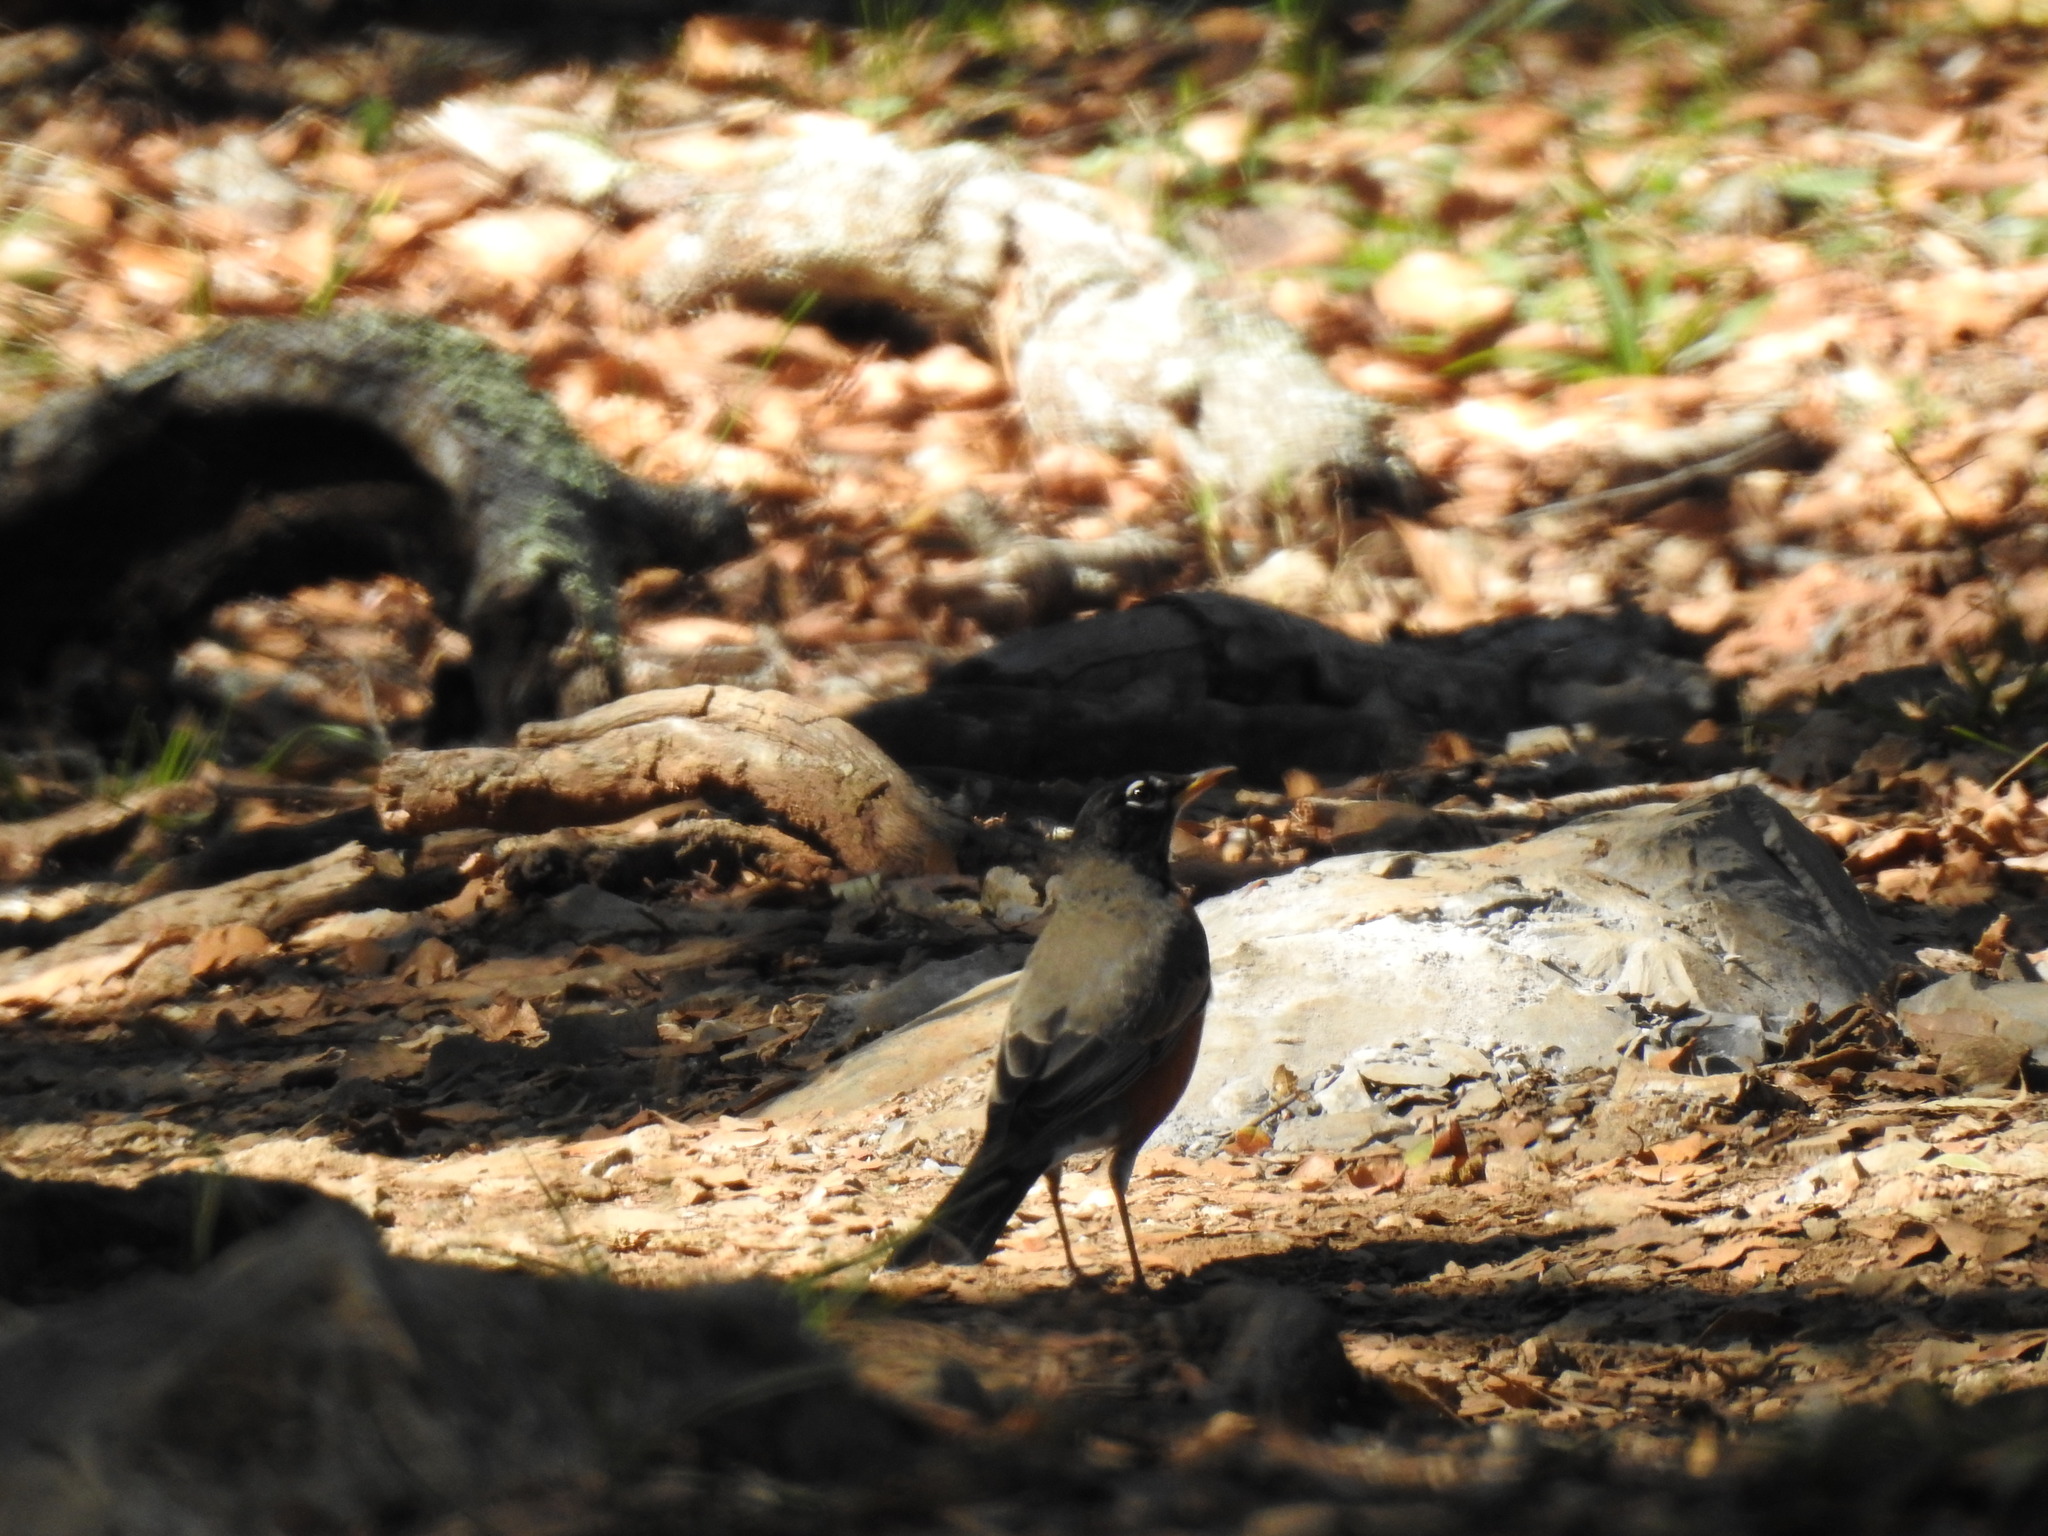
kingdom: Animalia
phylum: Chordata
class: Aves
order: Passeriformes
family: Turdidae
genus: Turdus
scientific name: Turdus migratorius
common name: American robin
